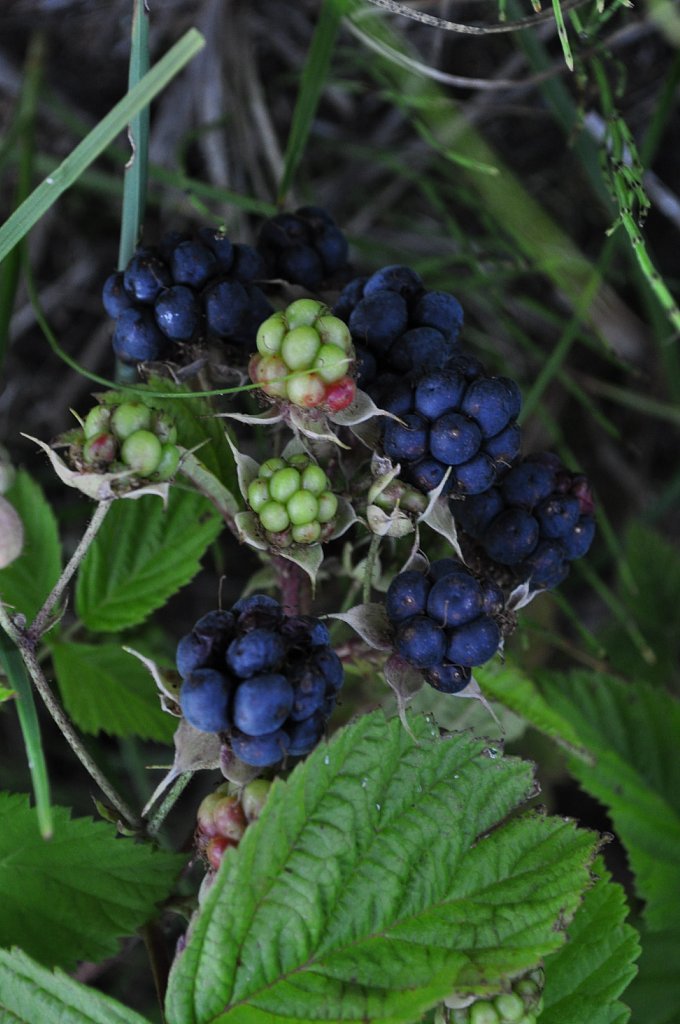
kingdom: Plantae
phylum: Tracheophyta
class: Magnoliopsida
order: Rosales
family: Rosaceae
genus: Rubus
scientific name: Rubus caesius
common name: Dewberry
